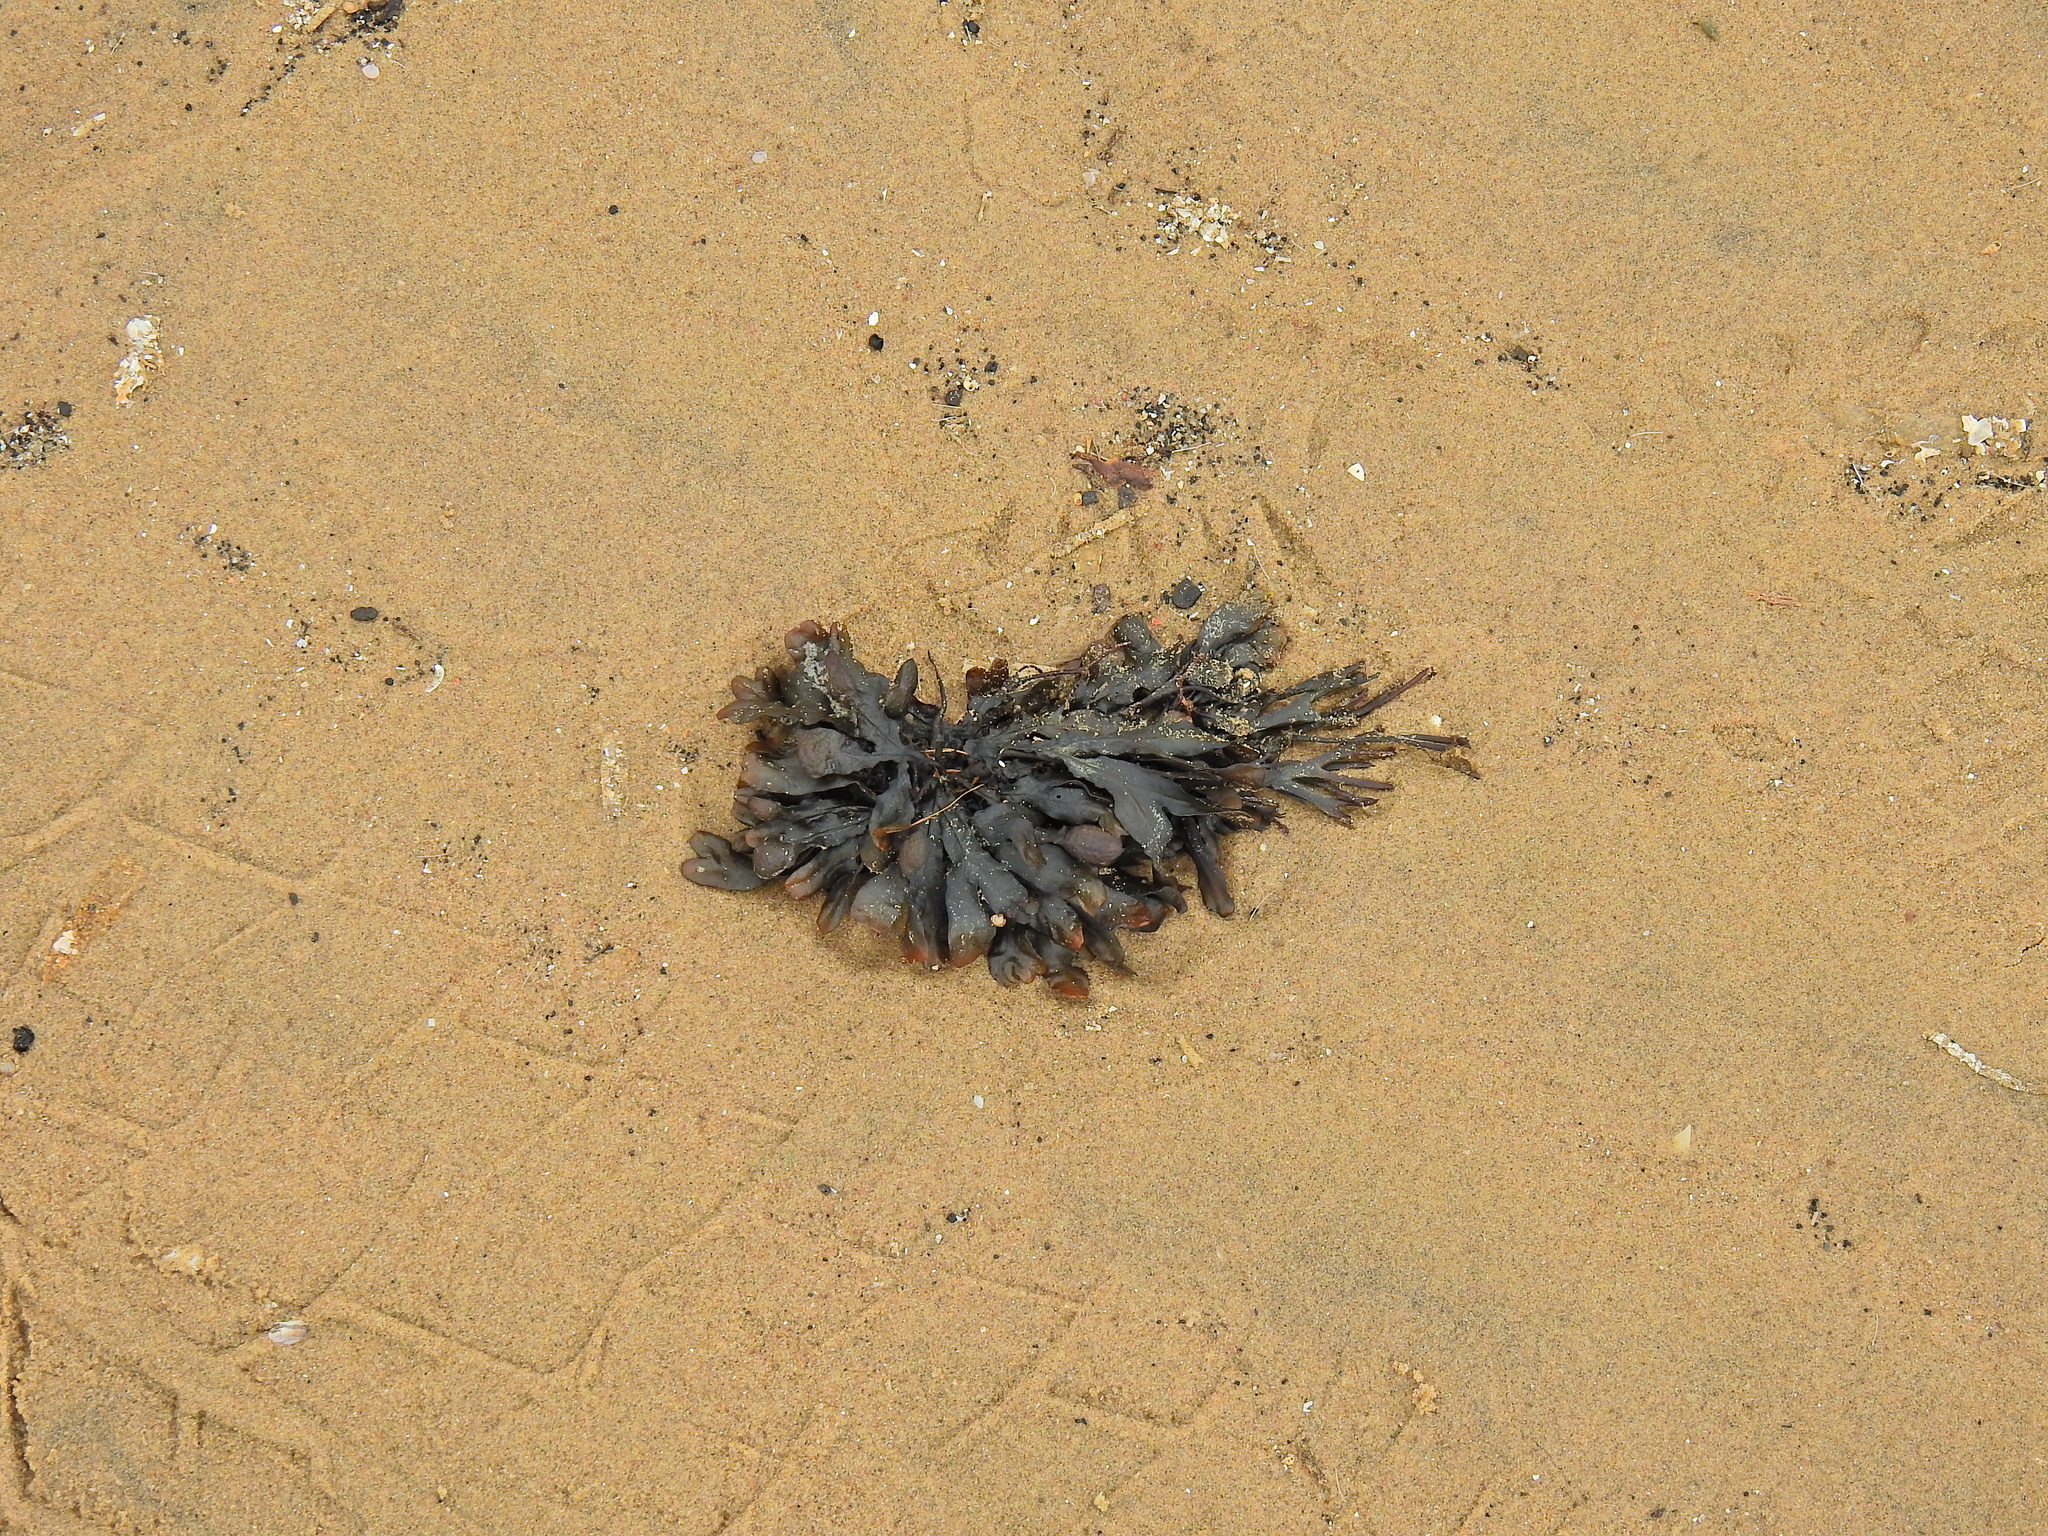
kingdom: Chromista
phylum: Ochrophyta
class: Phaeophyceae
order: Fucales
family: Fucaceae
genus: Fucus
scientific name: Fucus vesiculosus
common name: Bladder wrack
